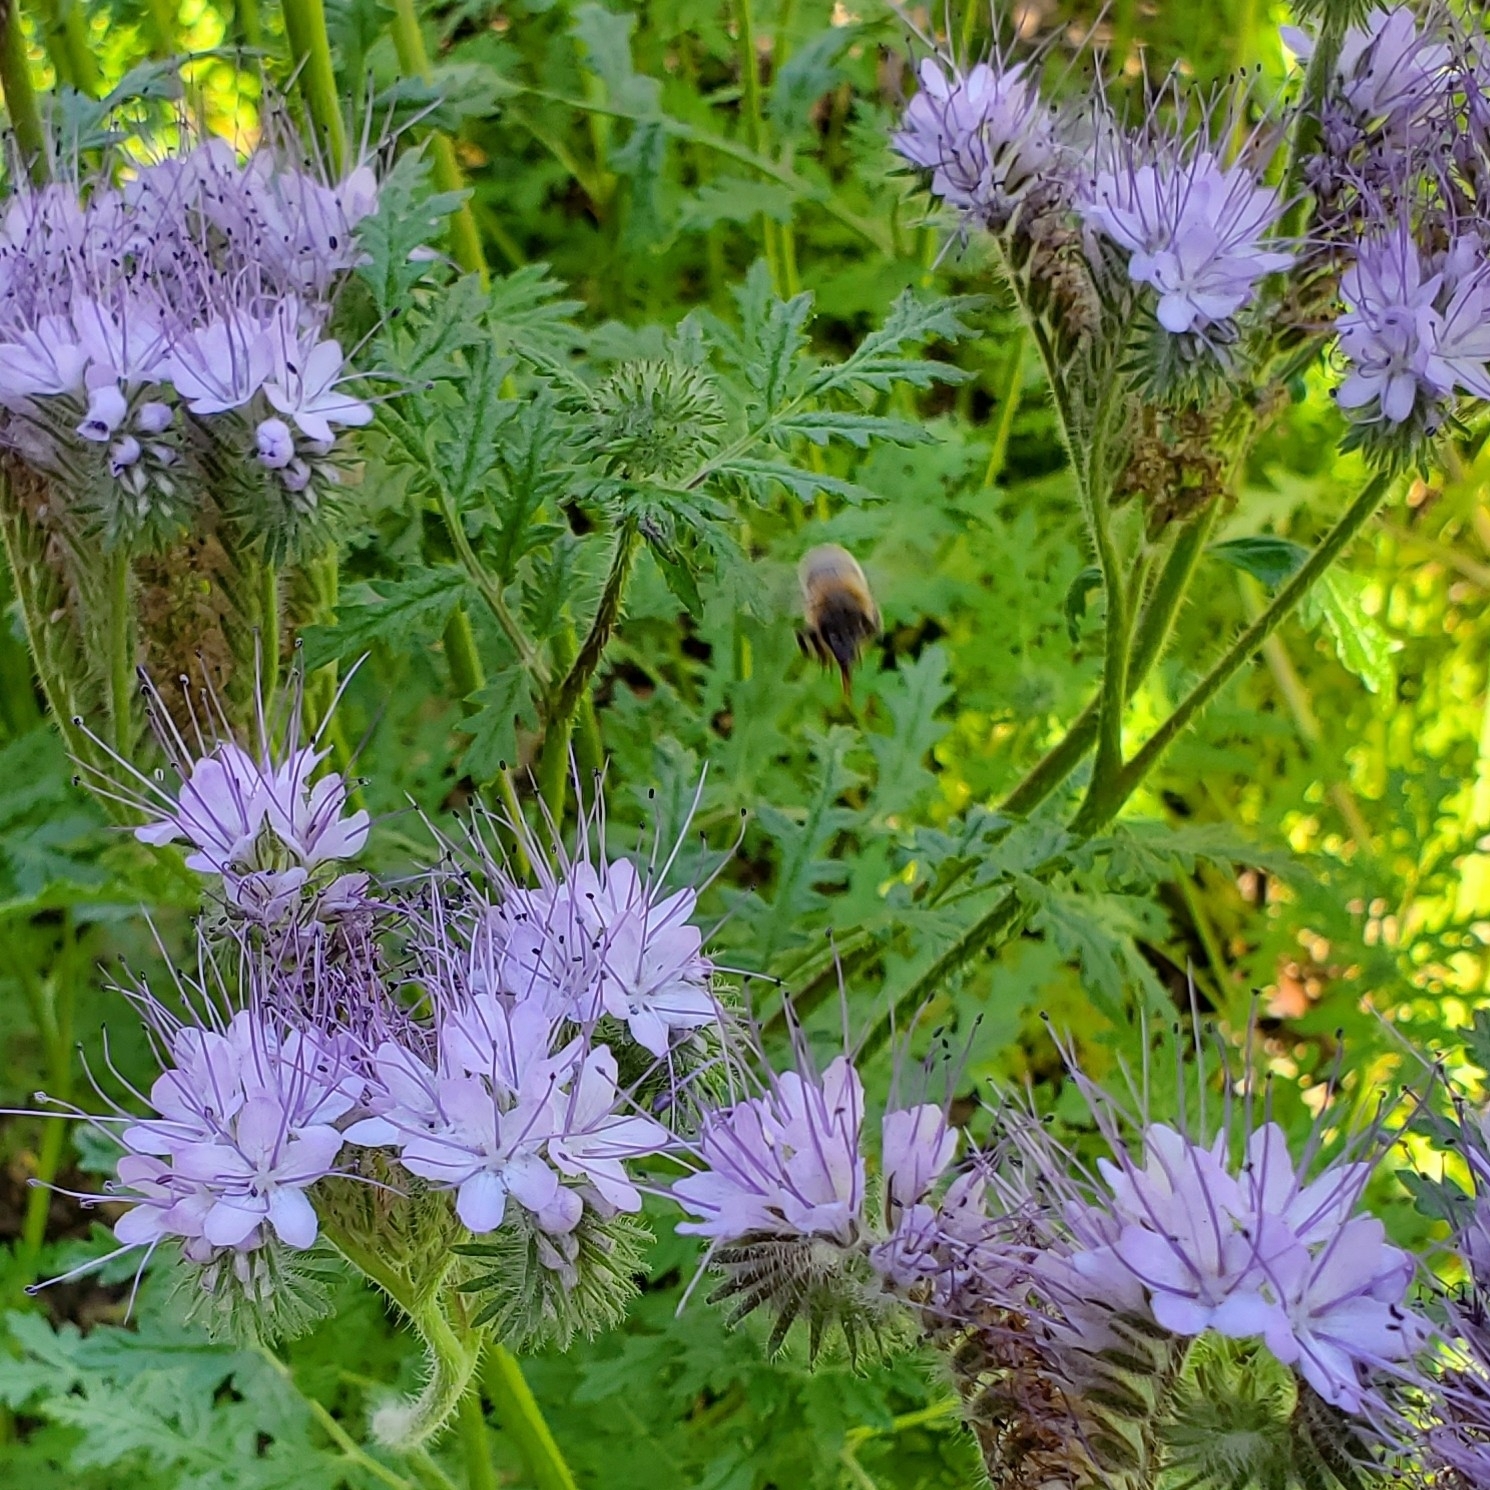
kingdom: Animalia
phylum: Arthropoda
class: Insecta
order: Hymenoptera
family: Apidae
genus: Apis
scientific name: Apis mellifera
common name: Honey bee
